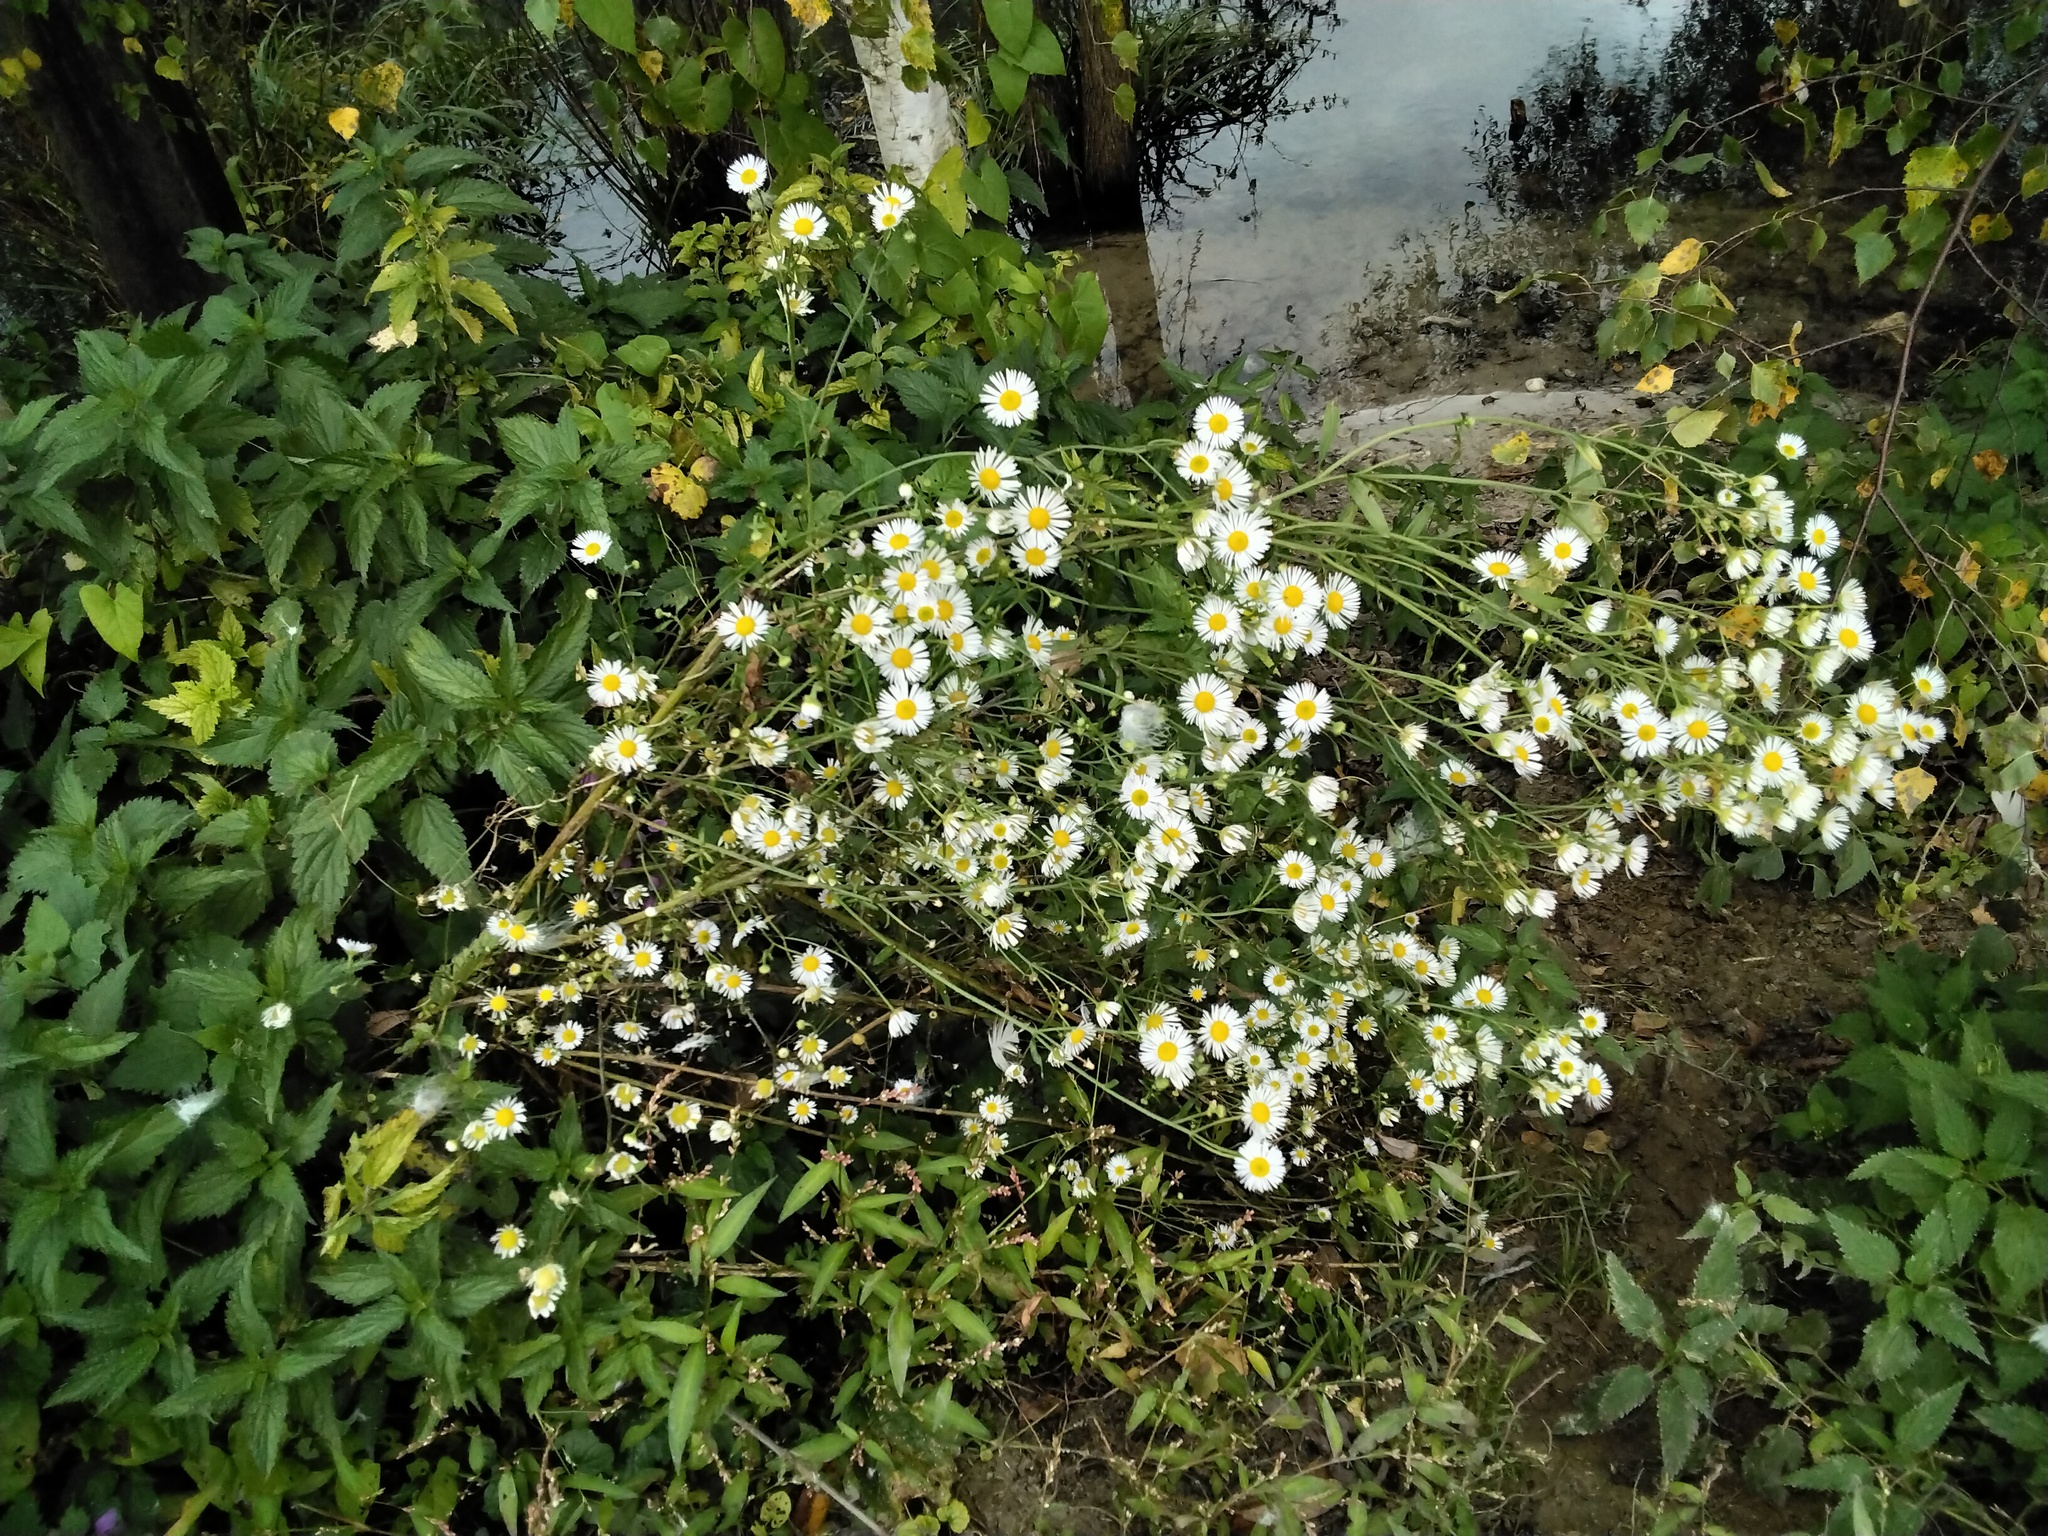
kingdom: Plantae
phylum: Tracheophyta
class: Magnoliopsida
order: Asterales
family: Asteraceae
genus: Erigeron
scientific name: Erigeron annuus
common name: Tall fleabane
